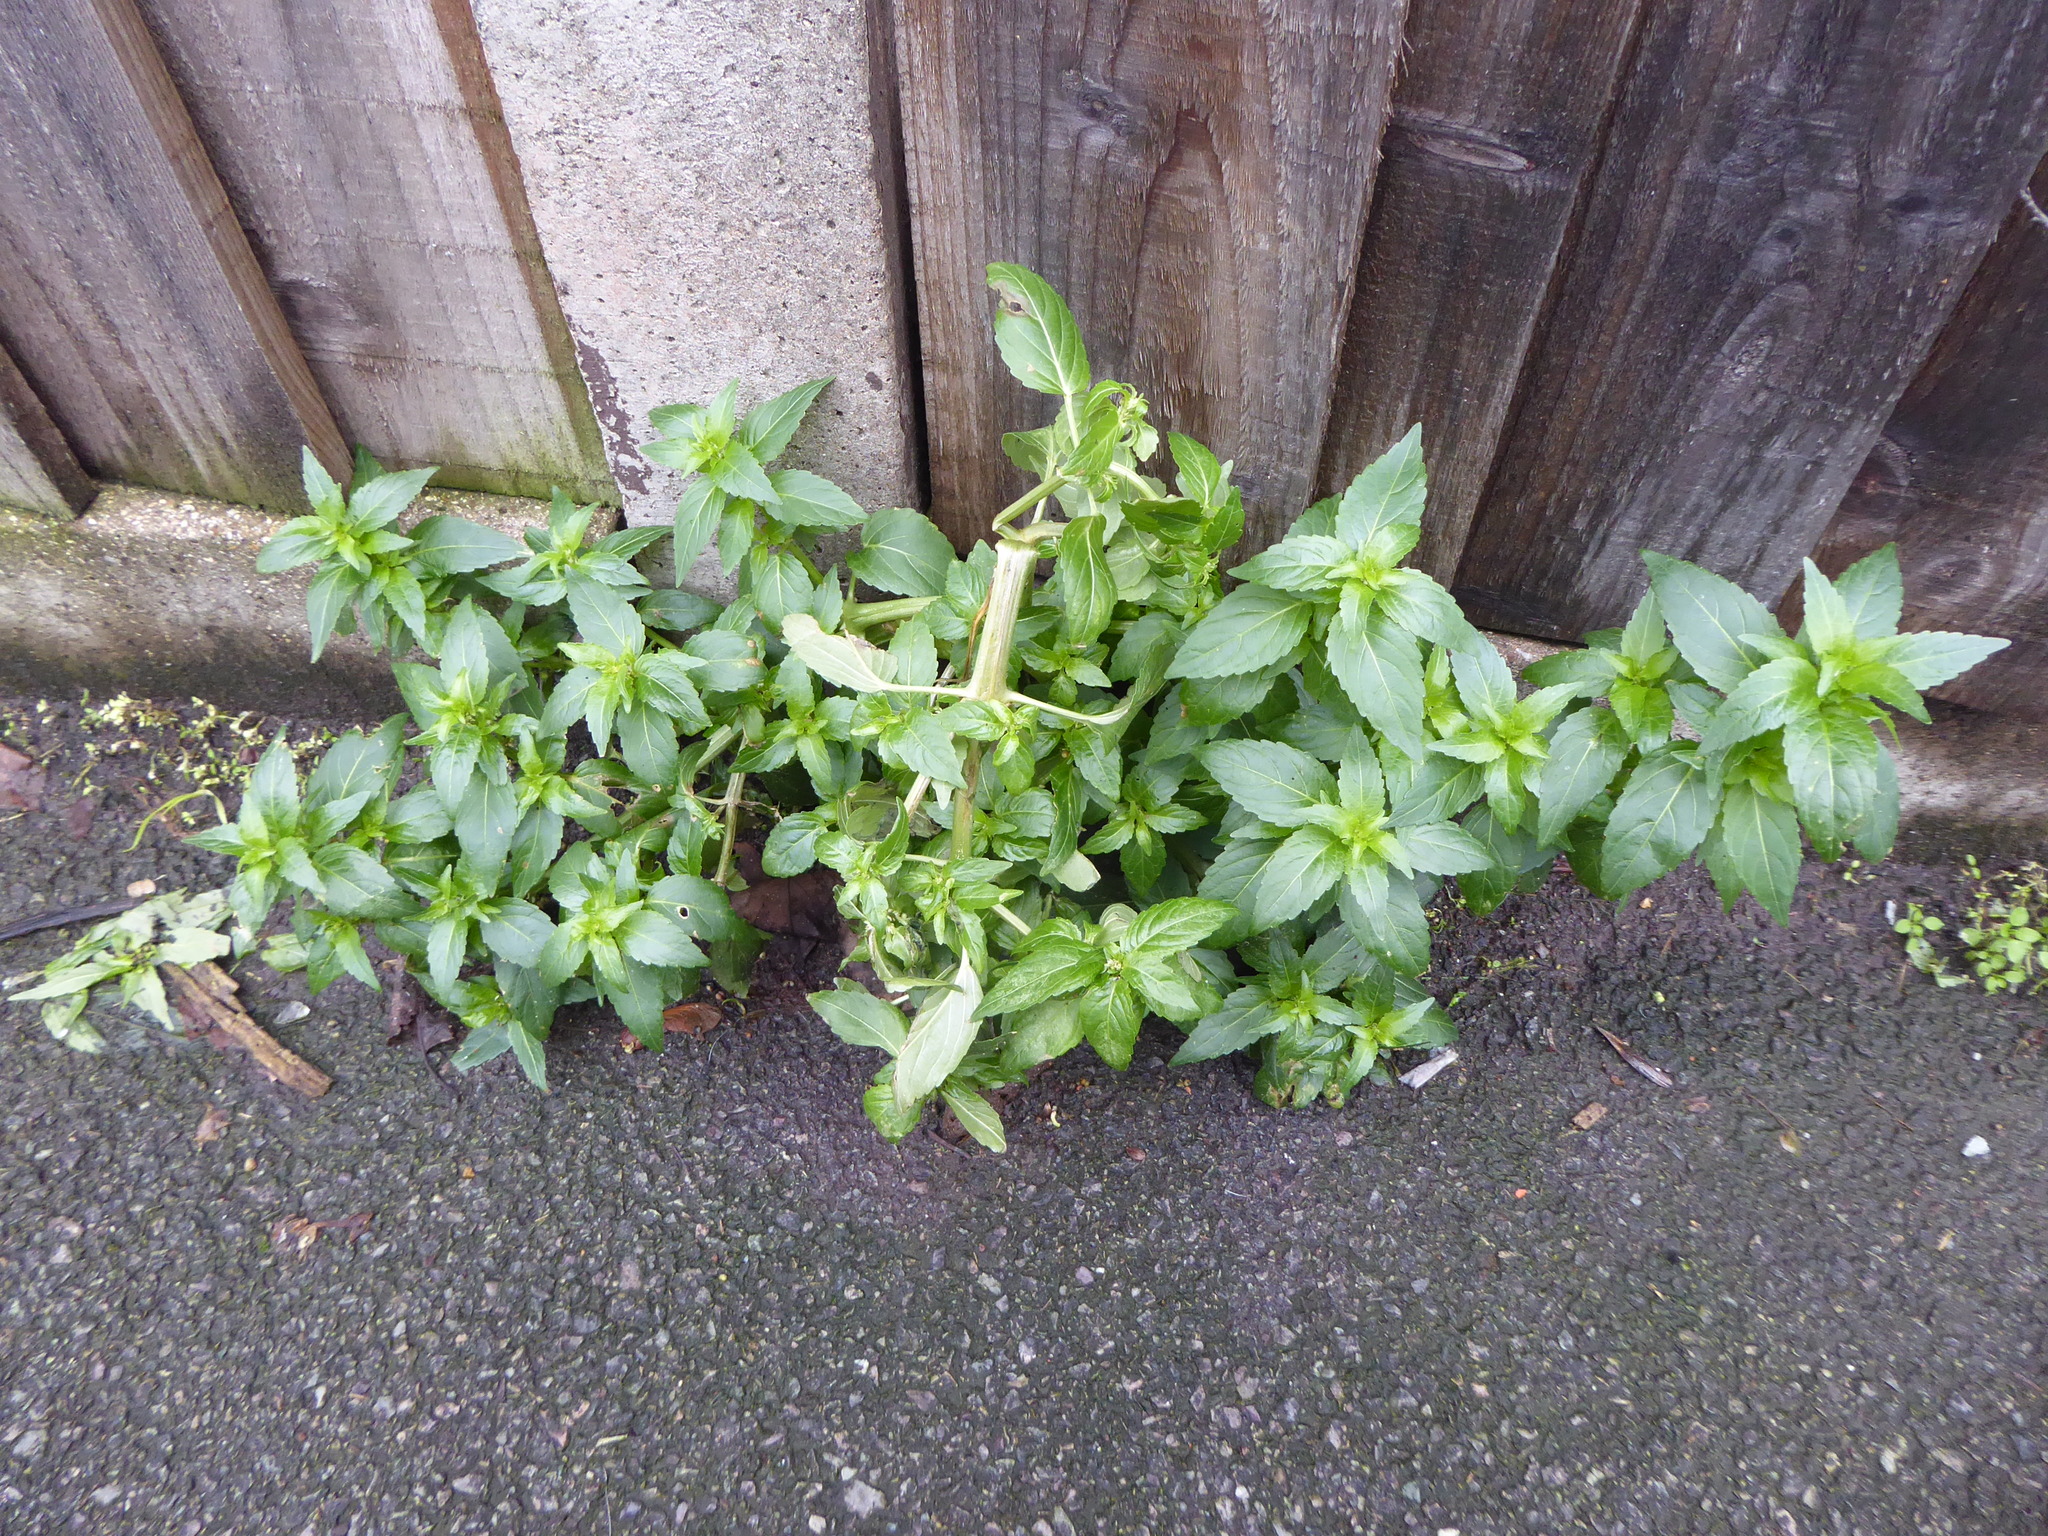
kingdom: Plantae
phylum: Tracheophyta
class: Magnoliopsida
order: Malpighiales
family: Euphorbiaceae
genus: Mercurialis
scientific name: Mercurialis annua
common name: Annual mercury
